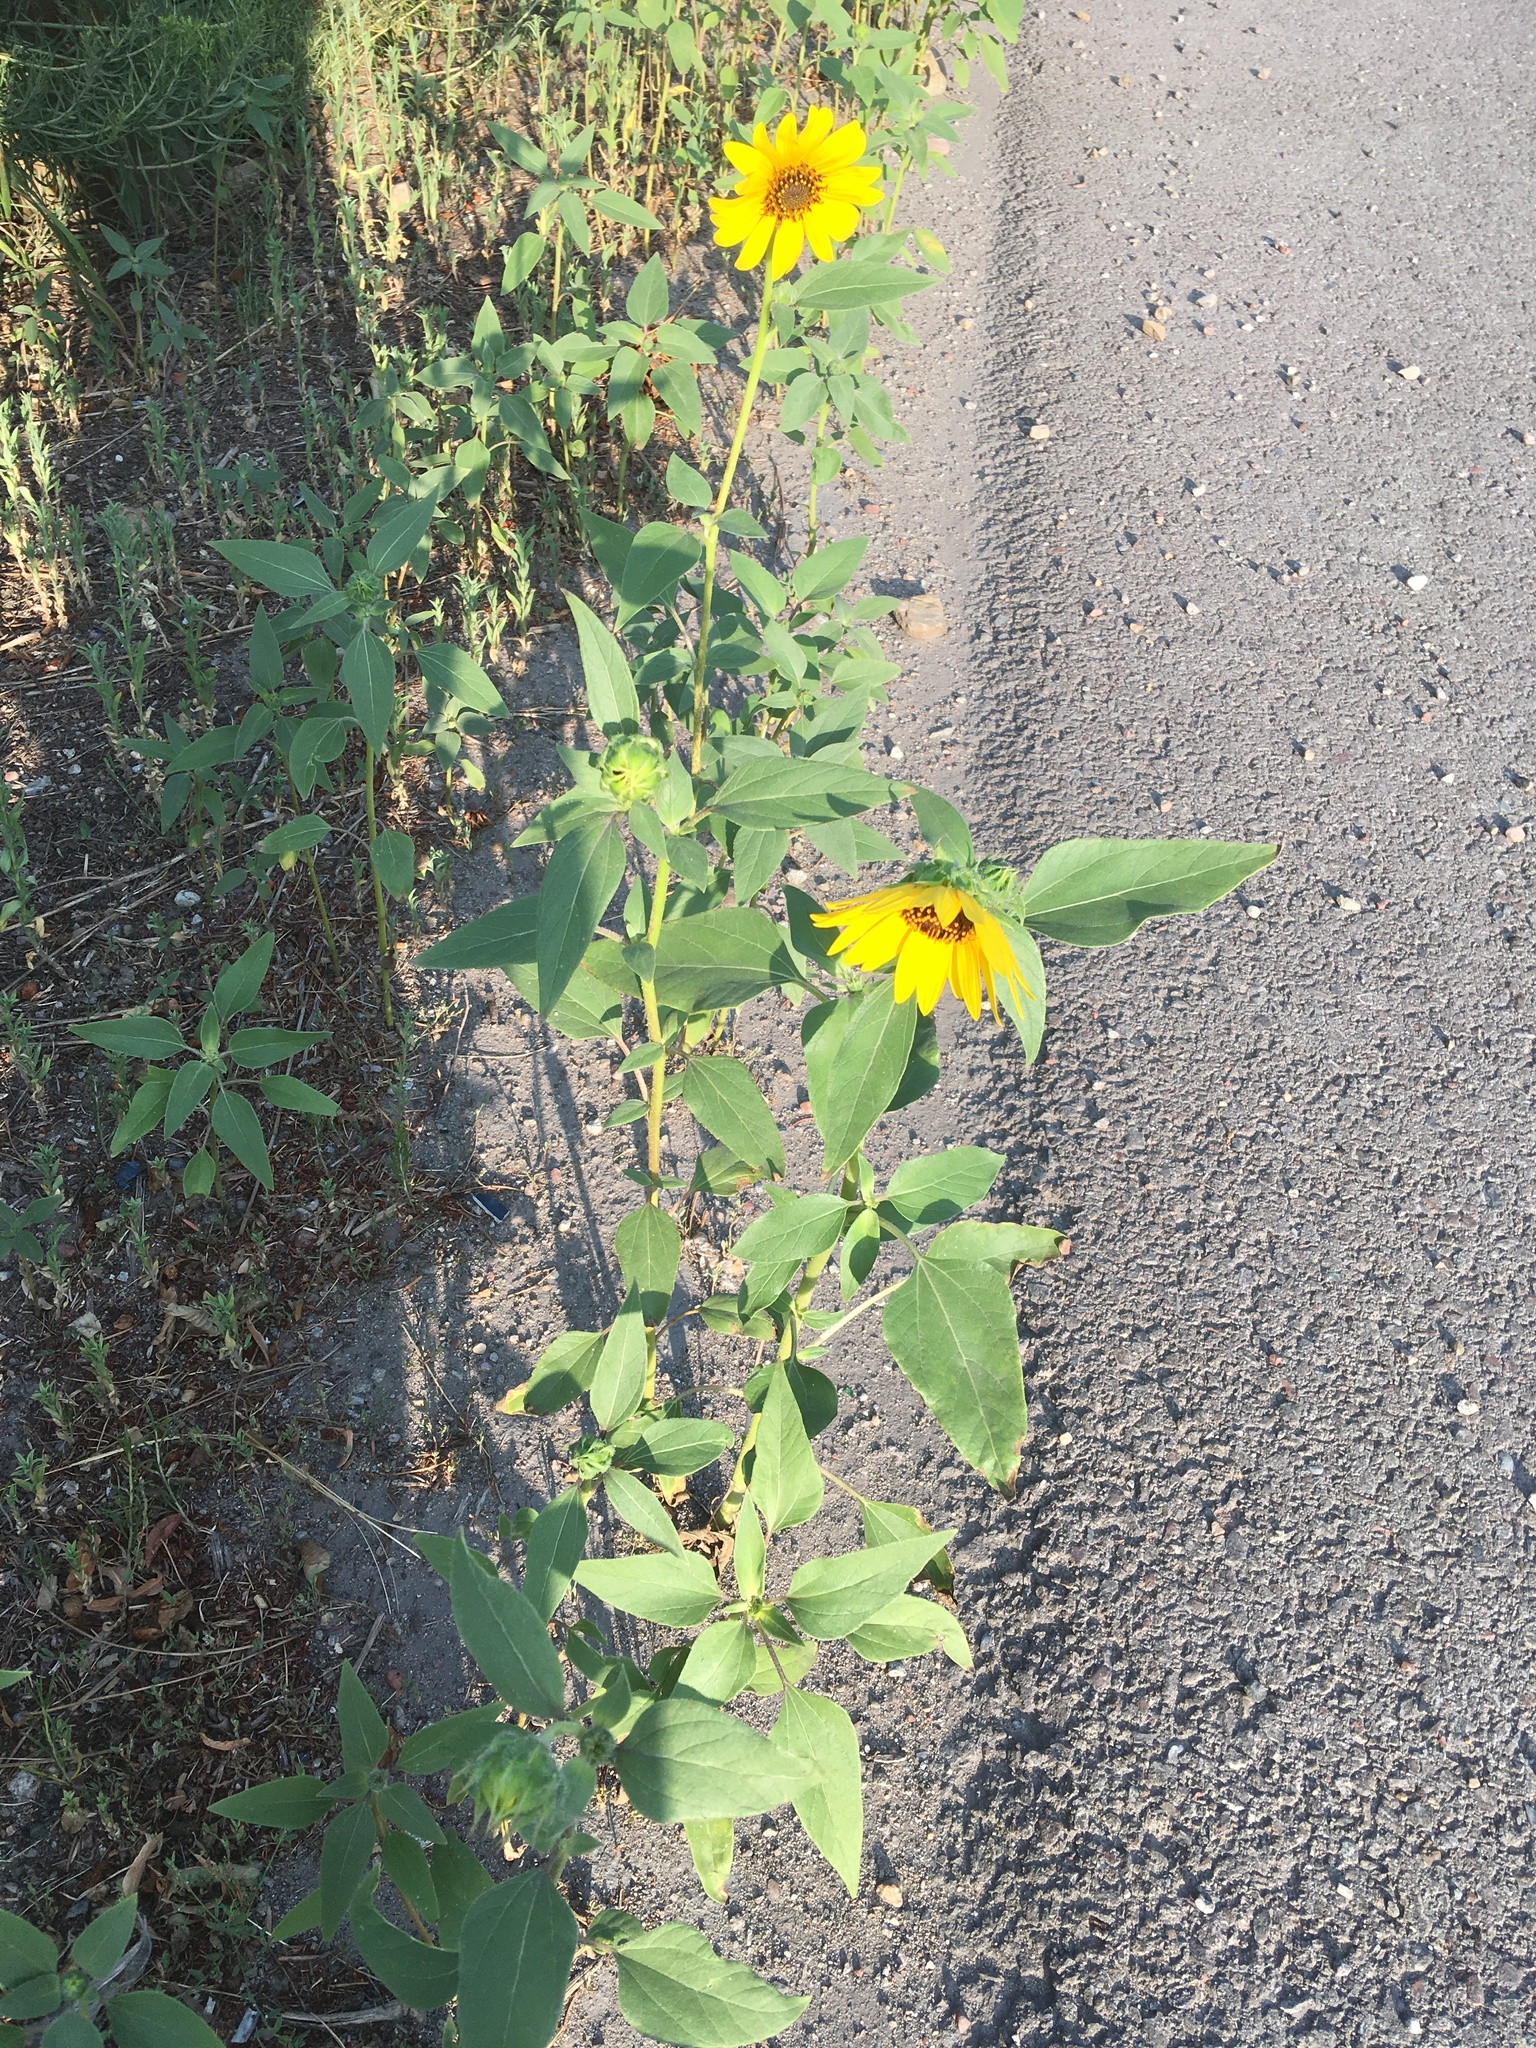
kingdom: Plantae
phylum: Tracheophyta
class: Magnoliopsida
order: Asterales
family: Asteraceae
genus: Helianthus
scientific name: Helianthus annuus
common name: Sunflower
